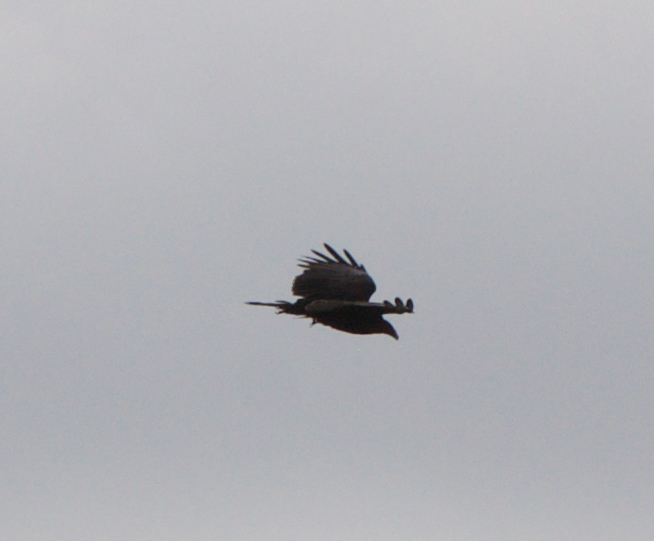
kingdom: Animalia
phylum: Chordata
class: Aves
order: Accipitriformes
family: Cathartidae
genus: Cathartes
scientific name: Cathartes aura
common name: Turkey vulture
